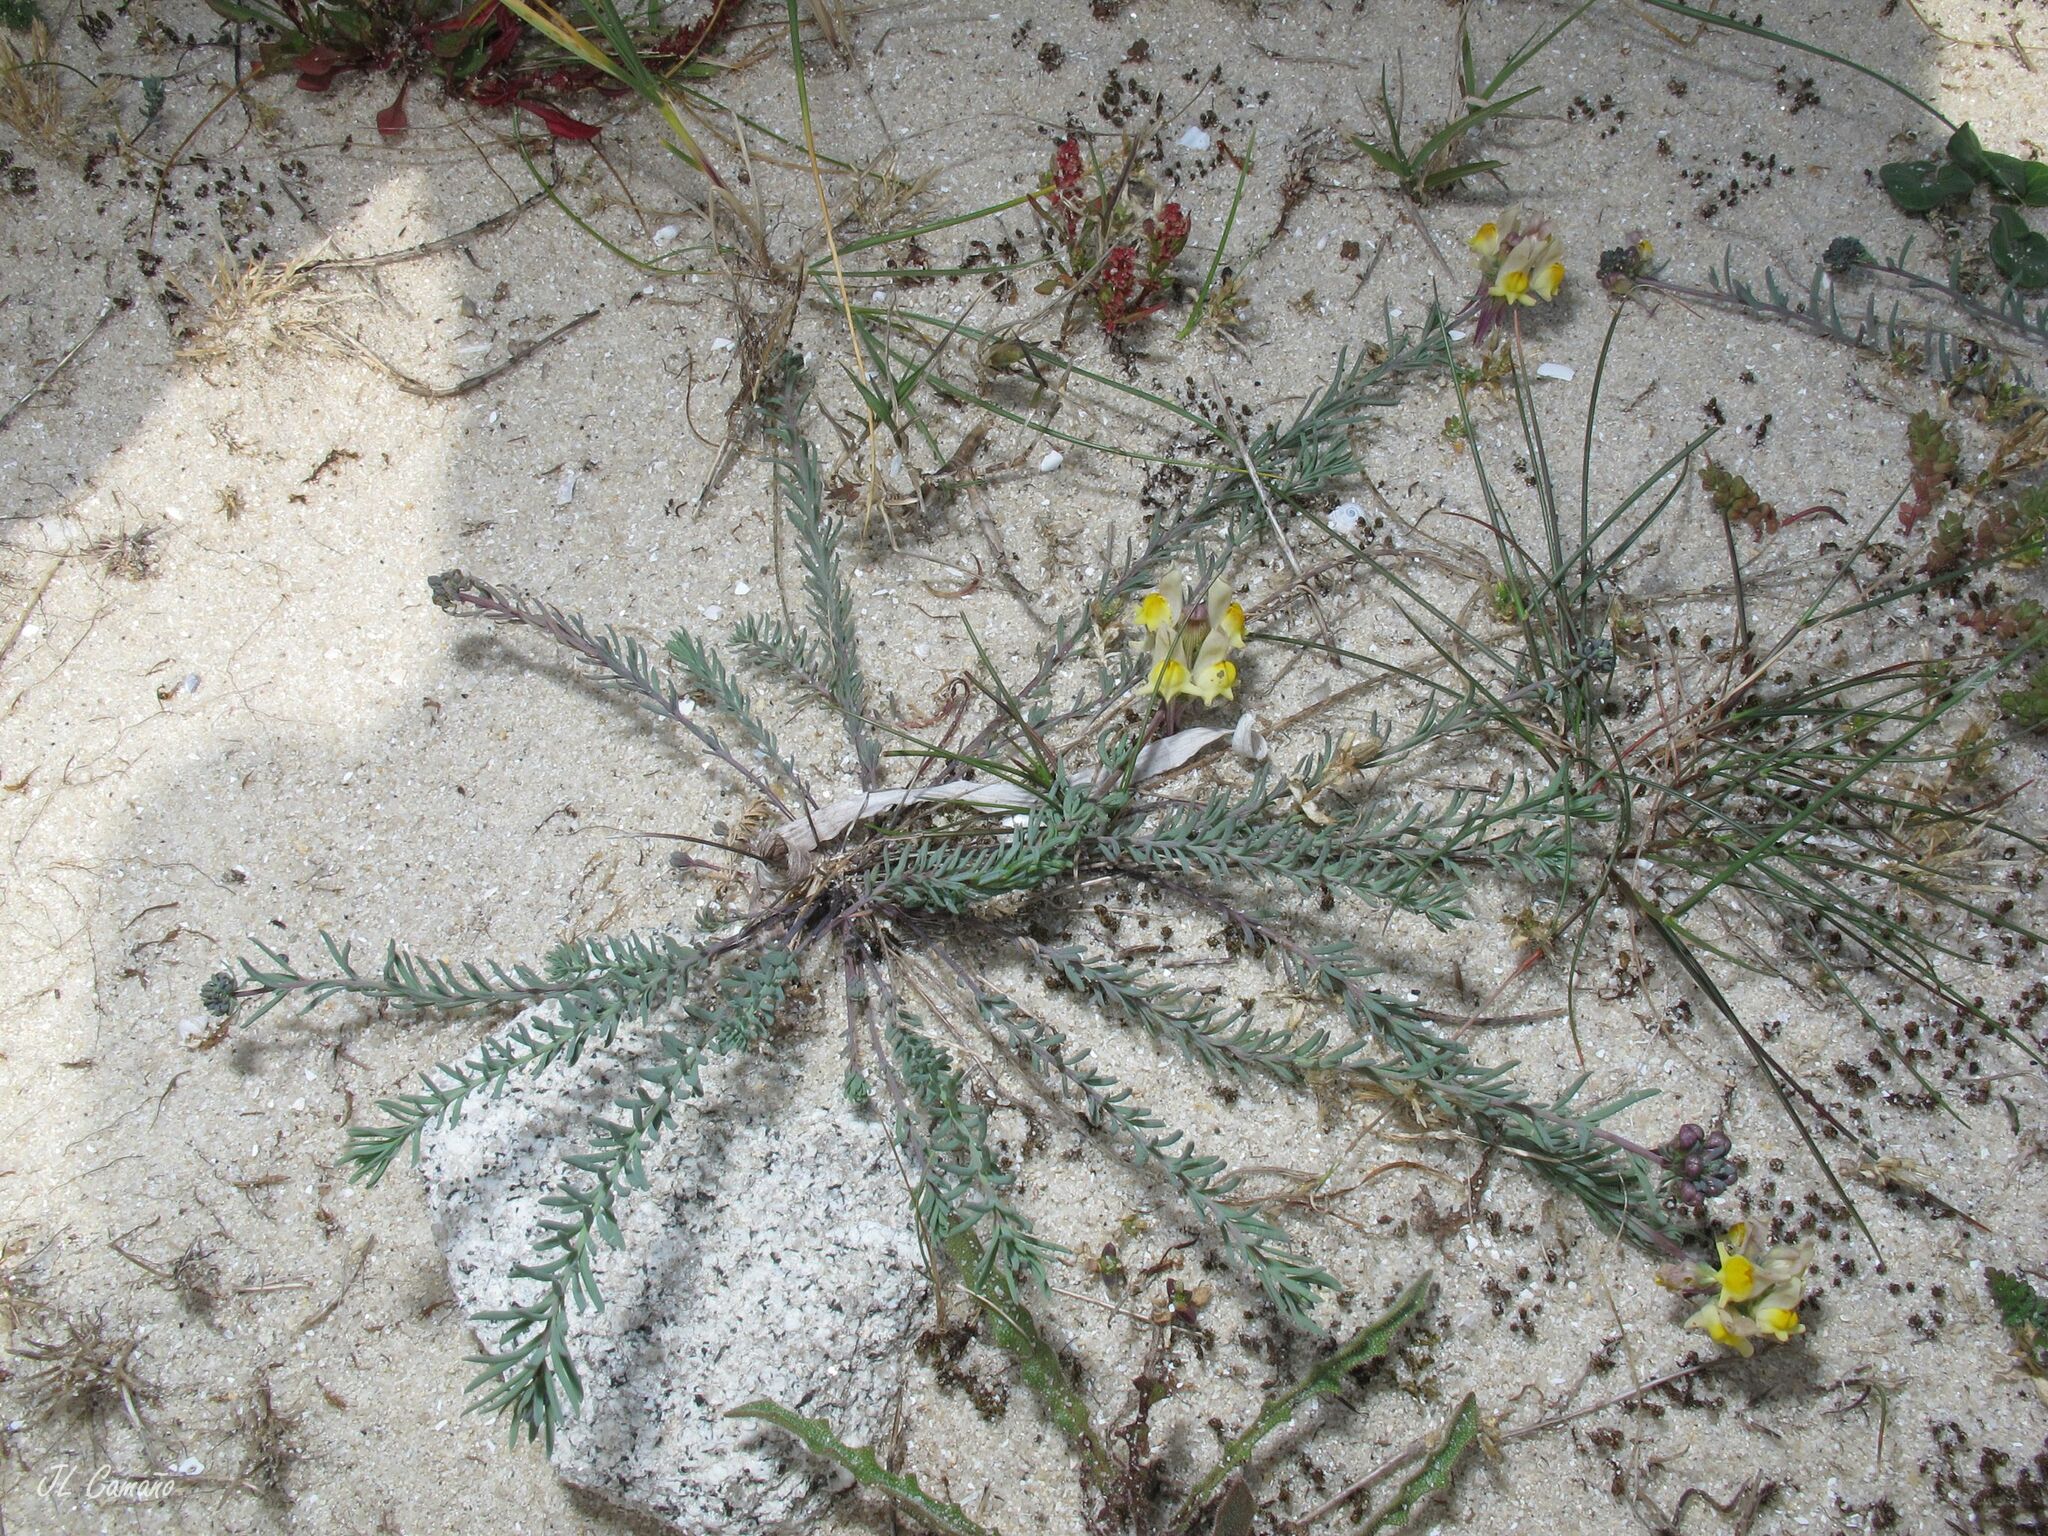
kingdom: Plantae
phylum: Tracheophyta
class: Magnoliopsida
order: Lamiales
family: Plantaginaceae
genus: Linaria
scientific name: Linaria polygalifolia
